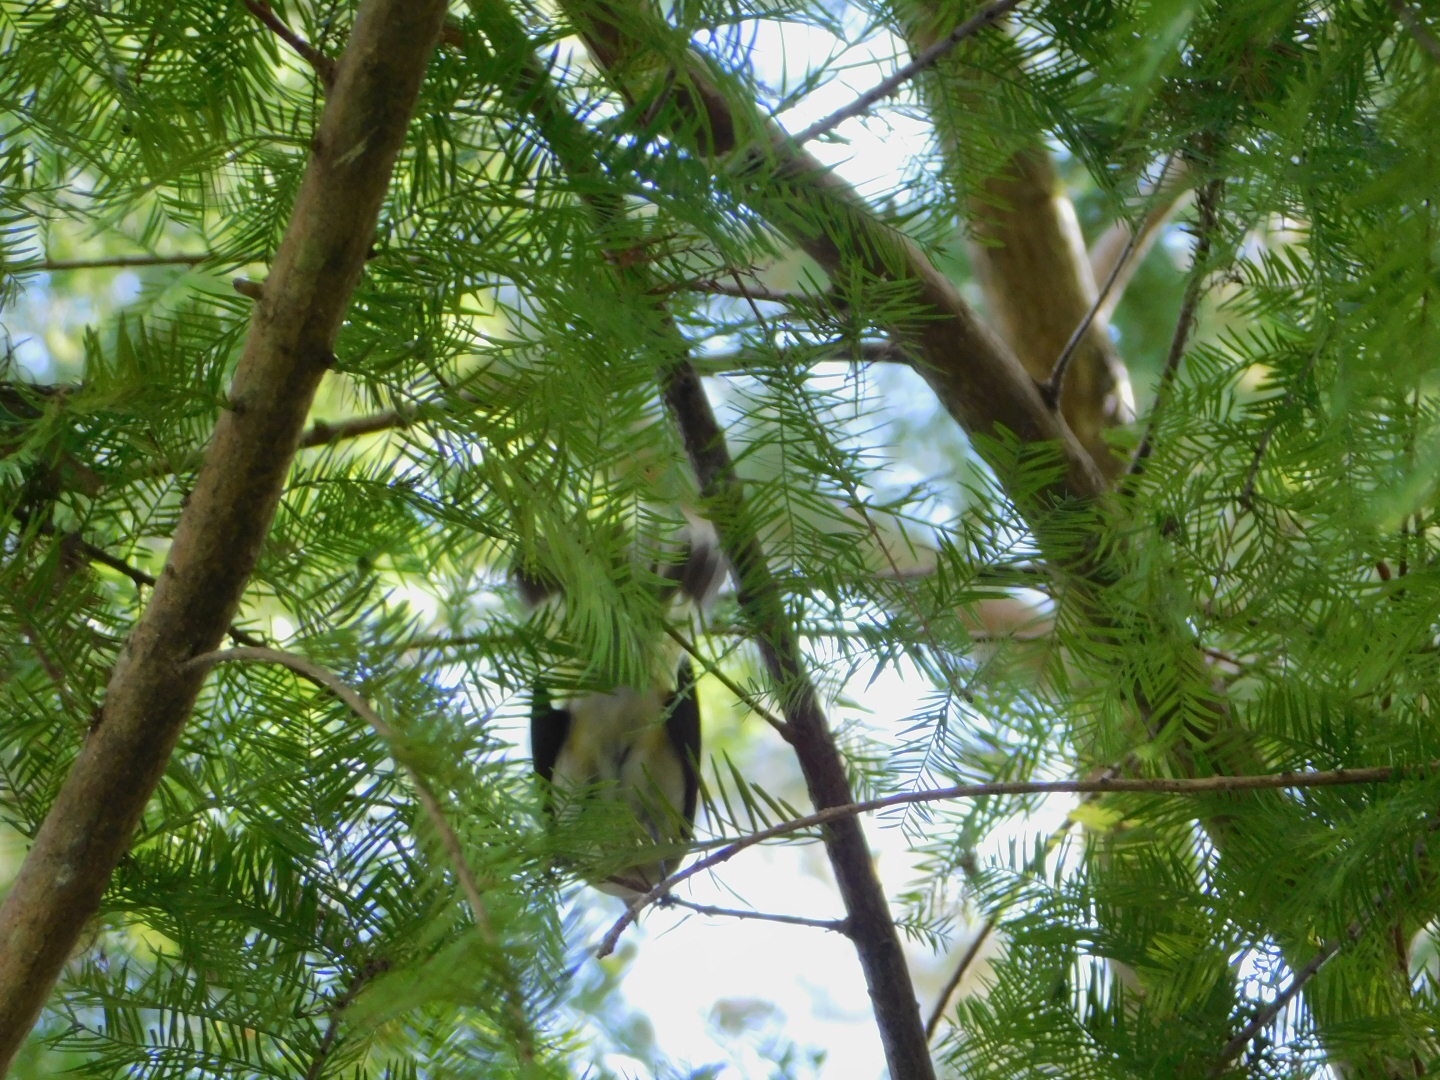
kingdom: Animalia
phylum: Chordata
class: Aves
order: Passeriformes
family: Parulidae
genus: Setophaga
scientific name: Setophaga ruticilla
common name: American redstart
